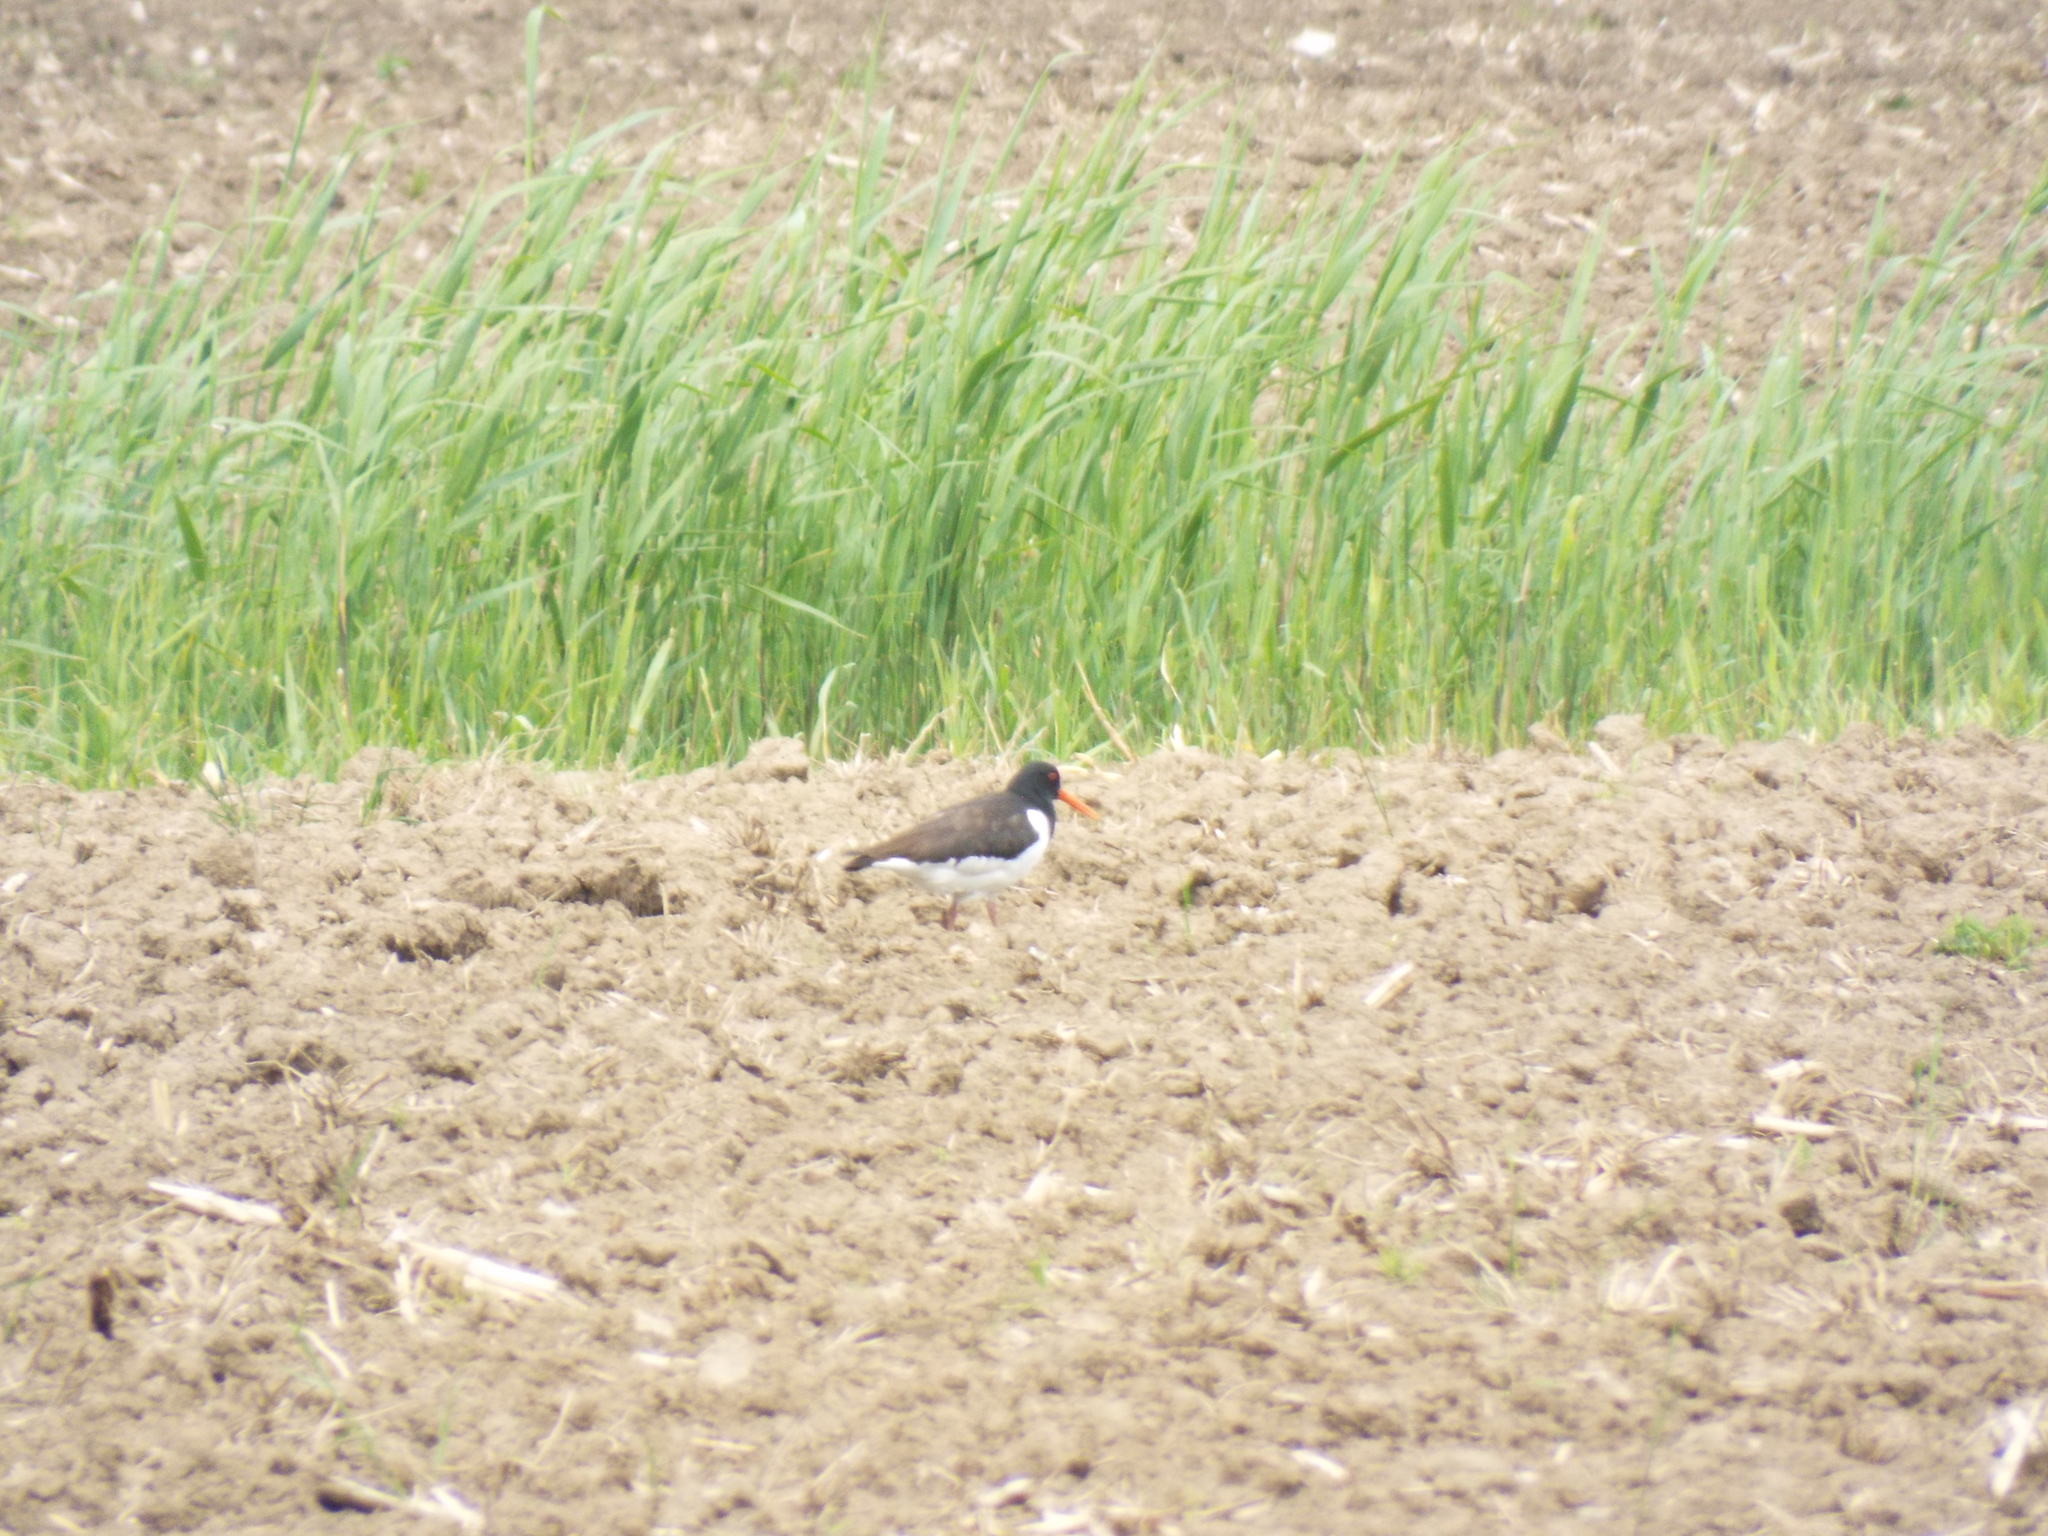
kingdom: Animalia
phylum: Chordata
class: Aves
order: Charadriiformes
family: Haematopodidae
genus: Haematopus
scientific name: Haematopus ostralegus
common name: Eurasian oystercatcher
